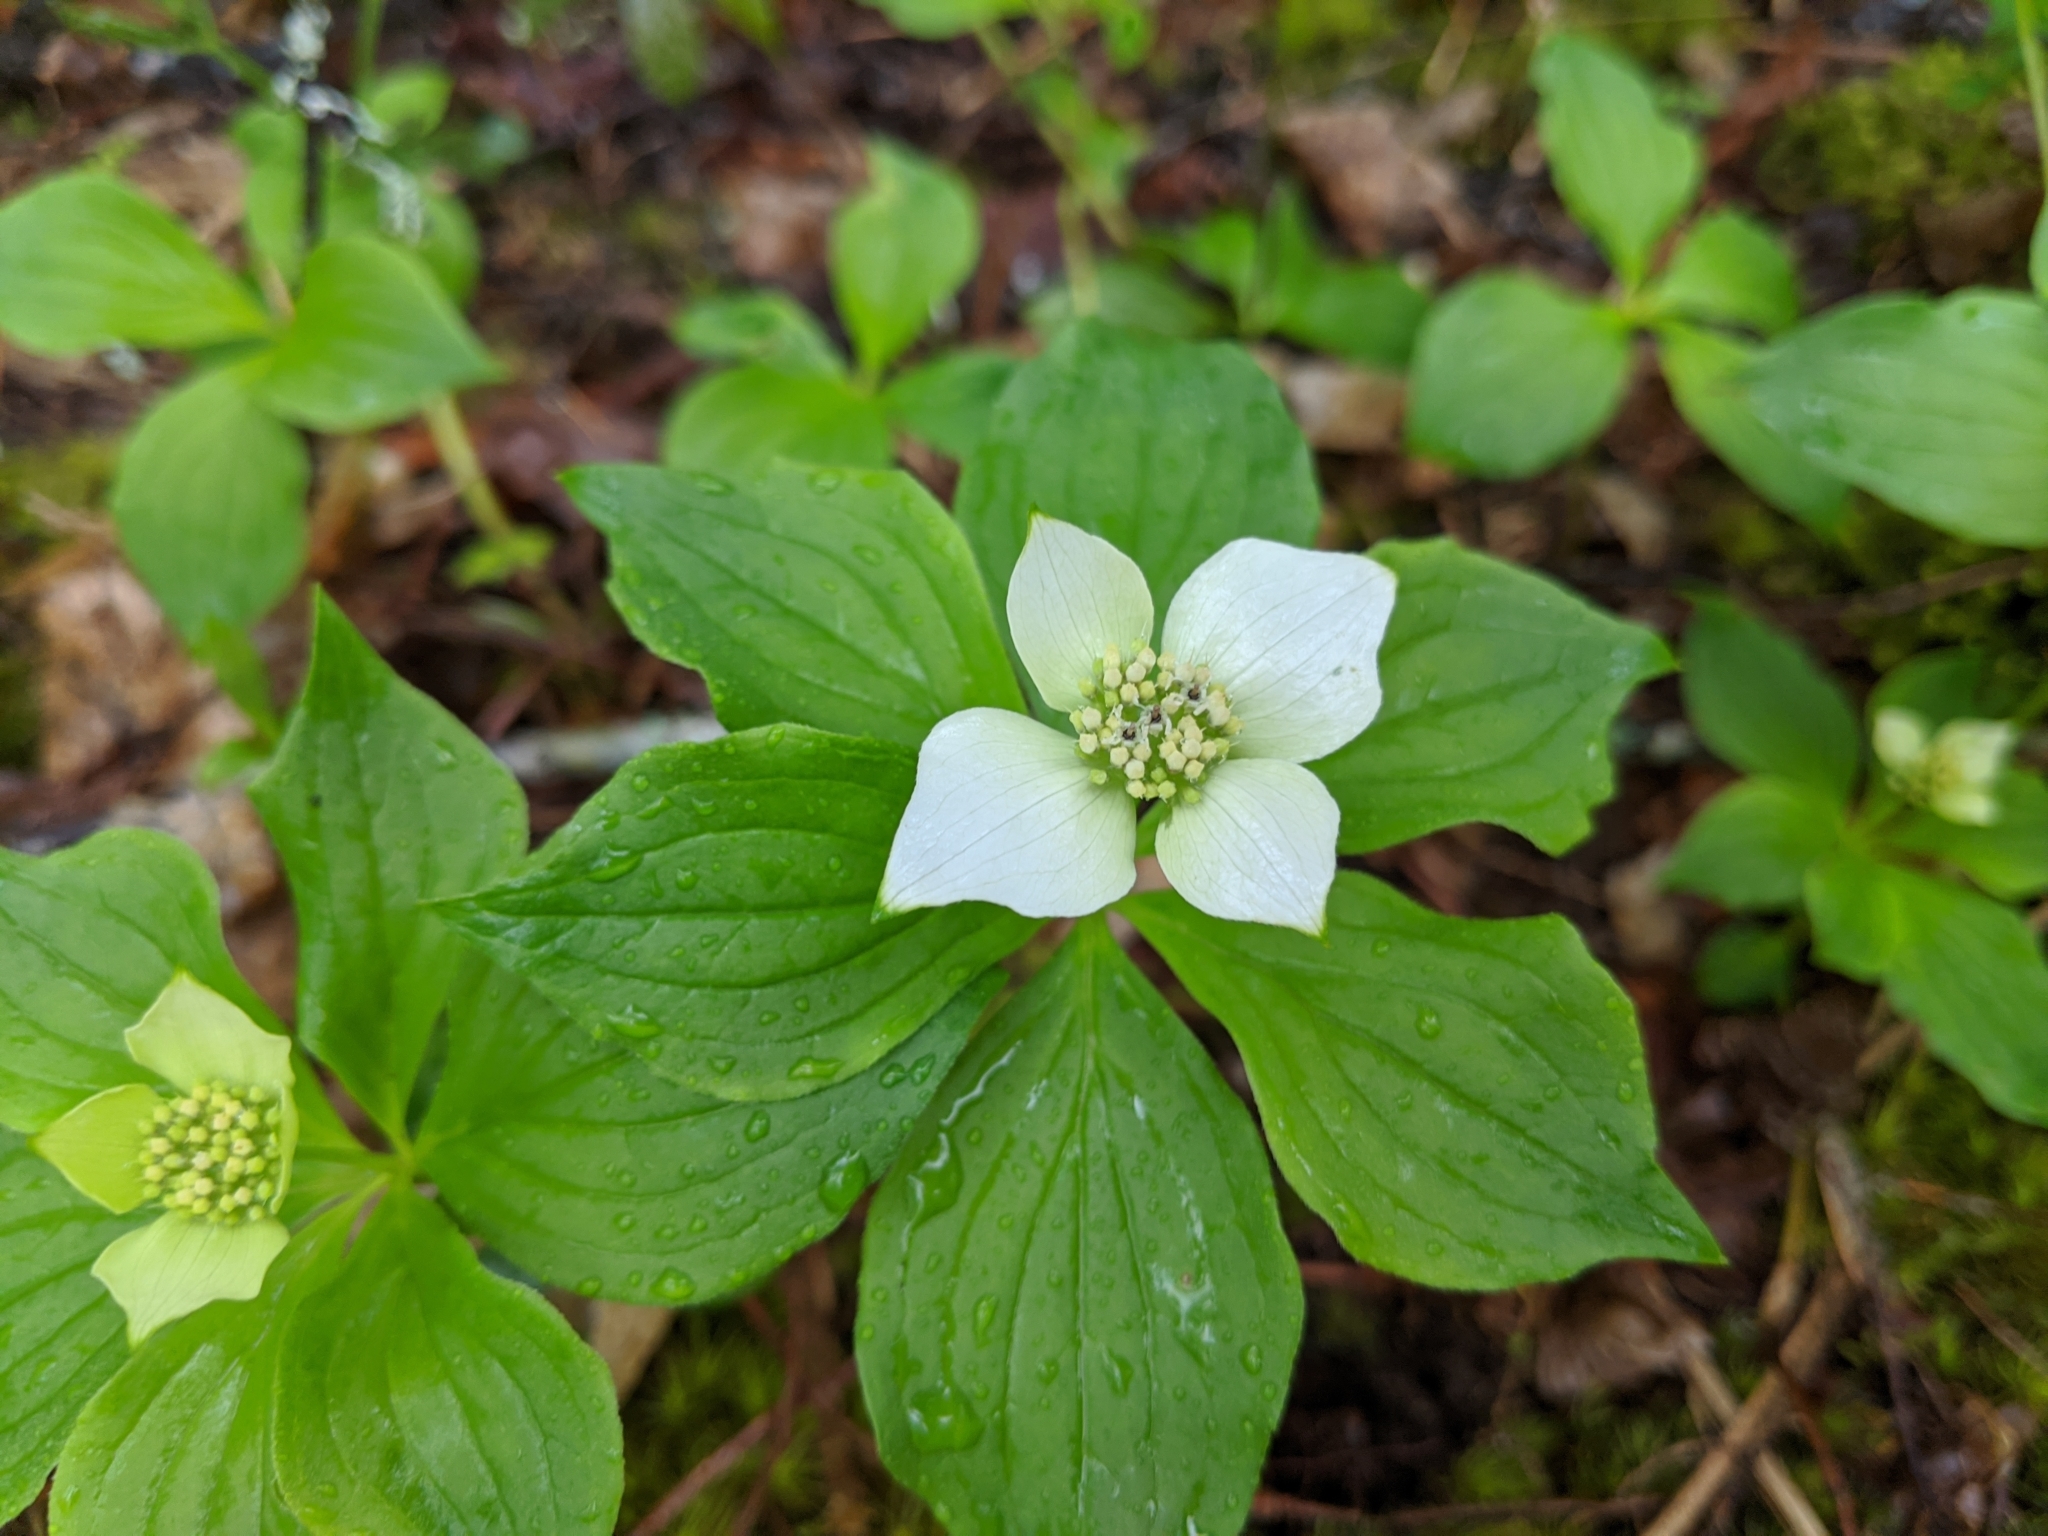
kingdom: Plantae
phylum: Tracheophyta
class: Magnoliopsida
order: Cornales
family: Cornaceae
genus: Cornus
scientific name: Cornus canadensis
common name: Creeping dogwood
